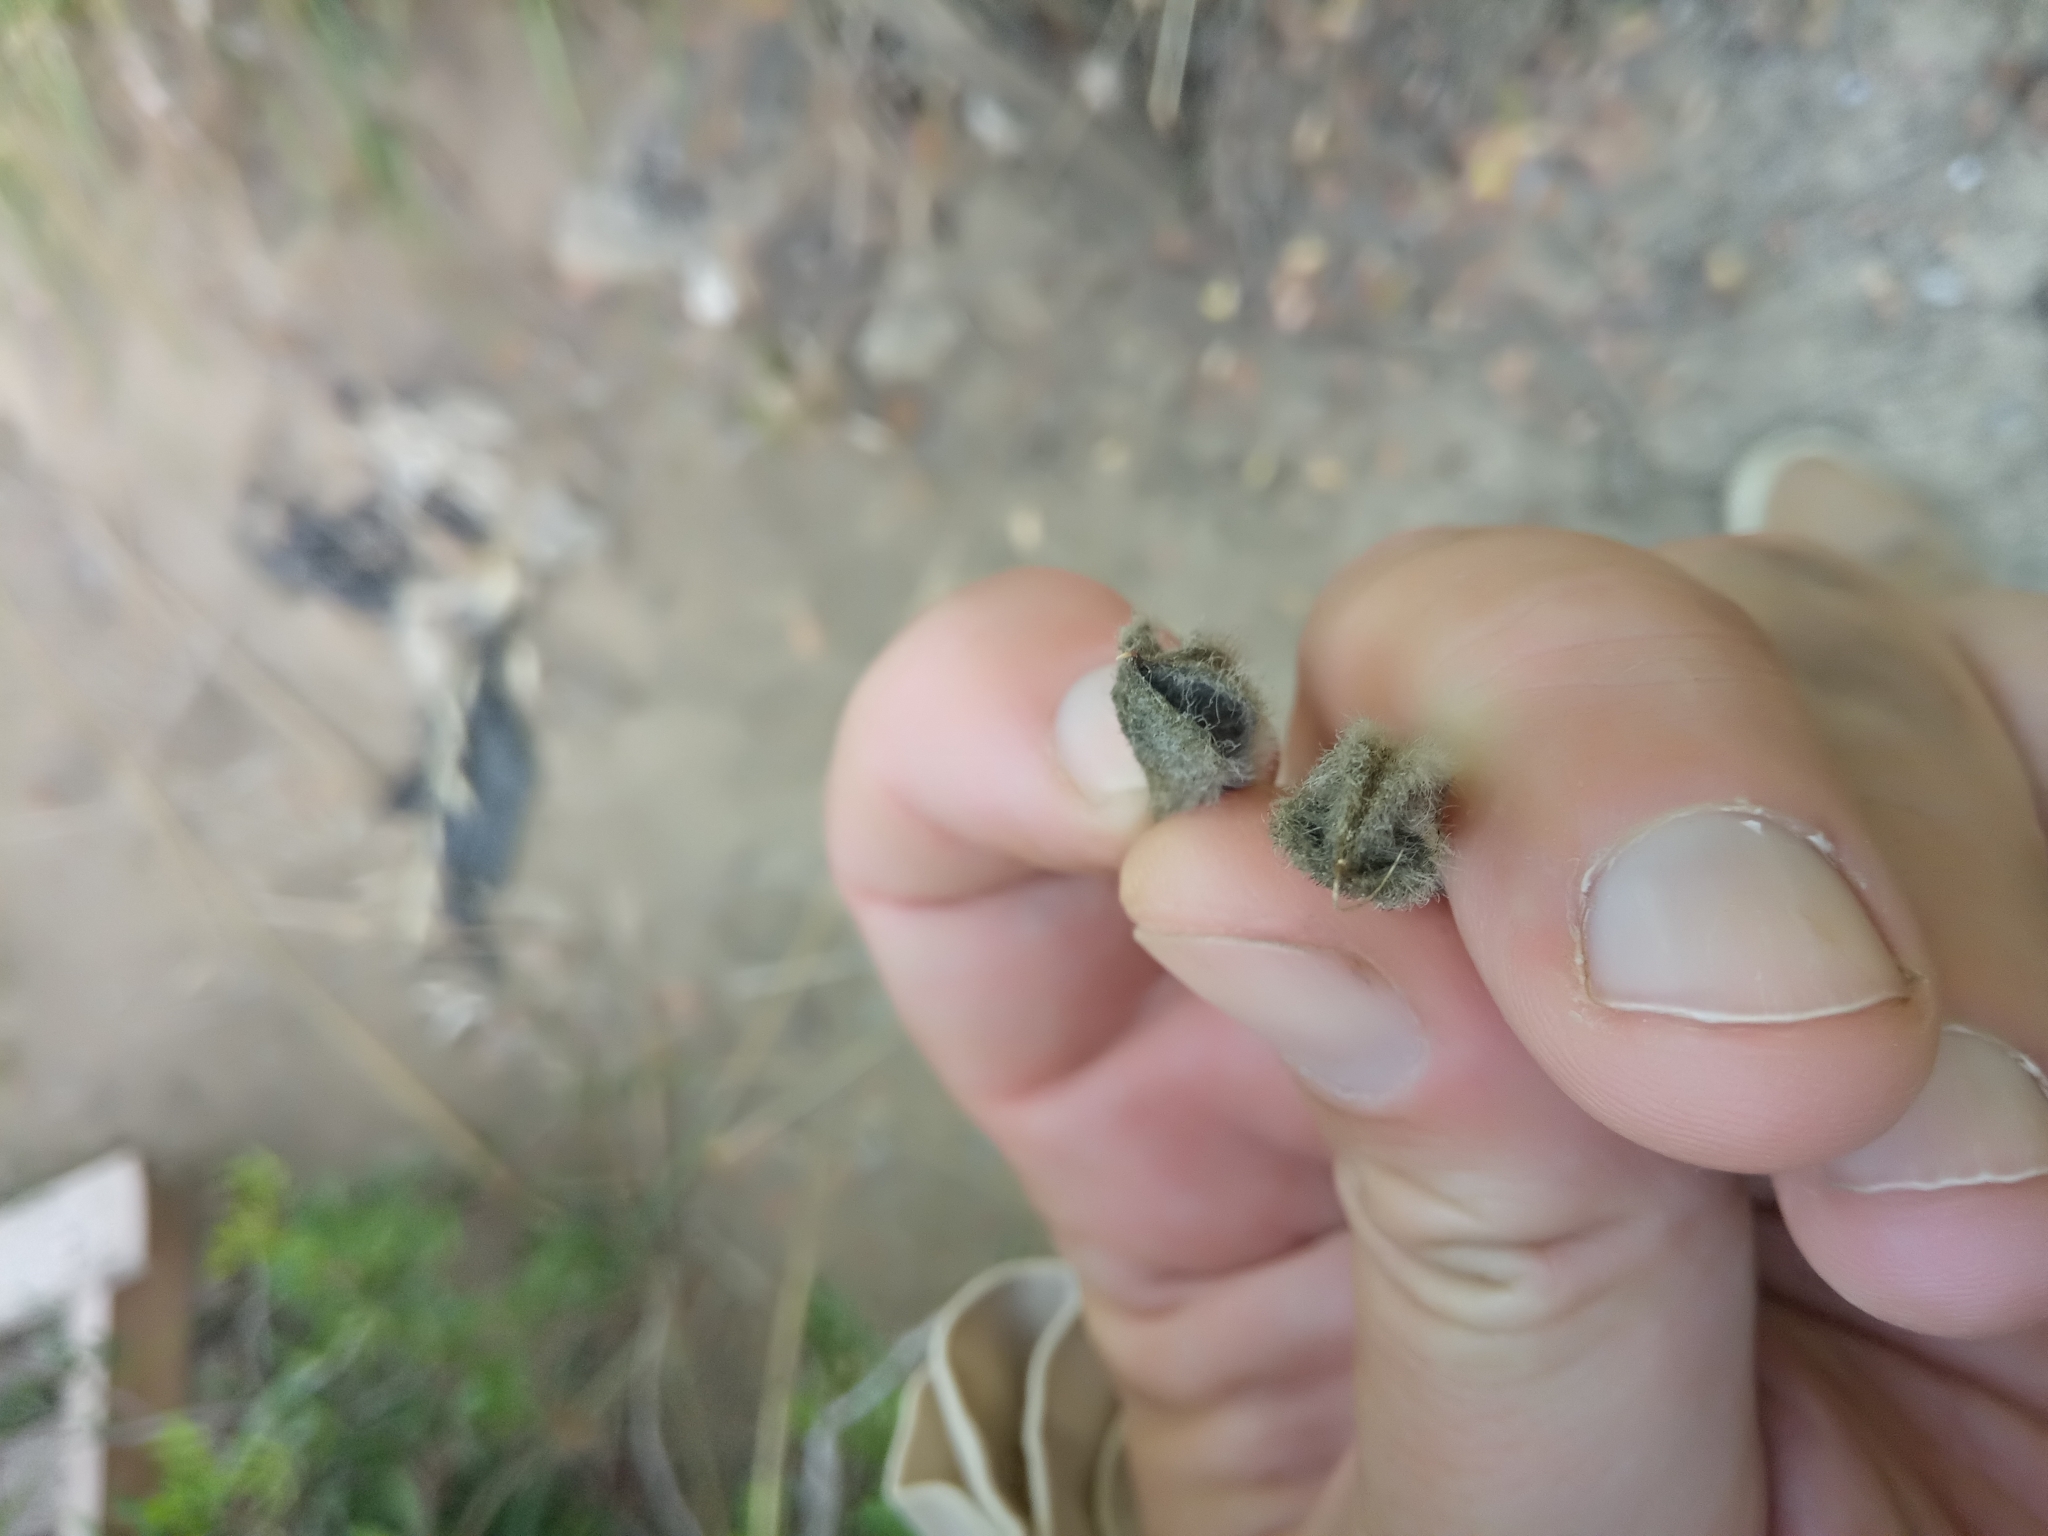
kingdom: Plantae
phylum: Tracheophyta
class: Magnoliopsida
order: Fabales
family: Fabaceae
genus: Cytisus
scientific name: Cytisus villosus
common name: Hairybroom
